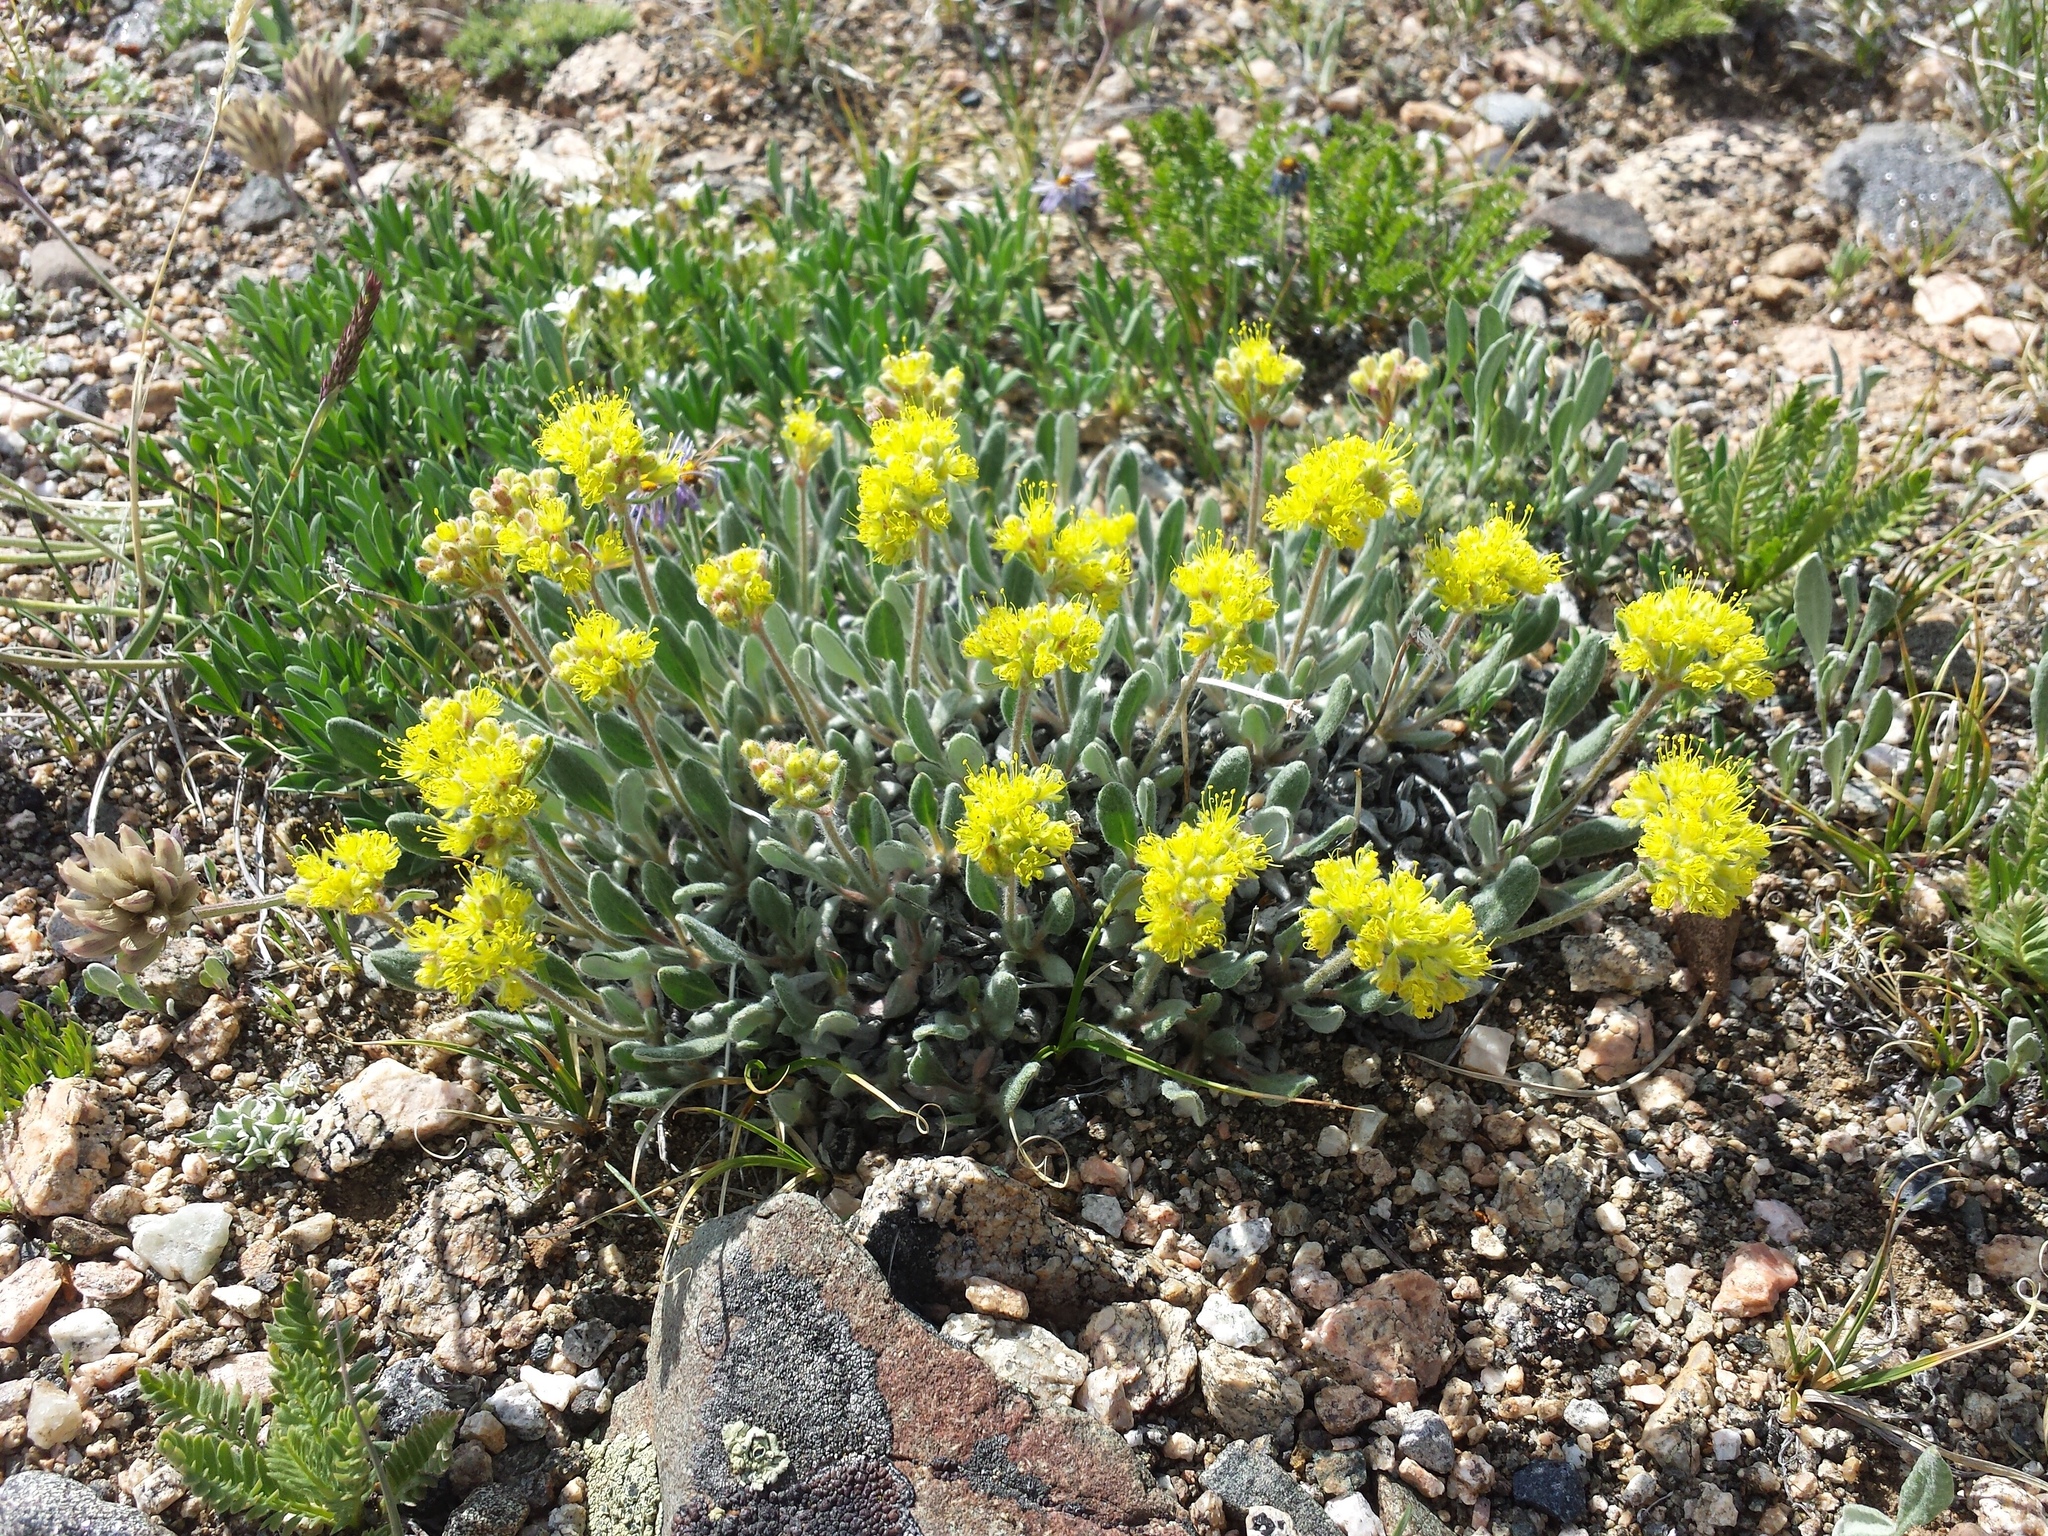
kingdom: Plantae
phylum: Tracheophyta
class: Magnoliopsida
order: Caryophyllales
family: Polygonaceae
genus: Eriogonum
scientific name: Eriogonum flavum
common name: Alpine golden wild buckwheat
